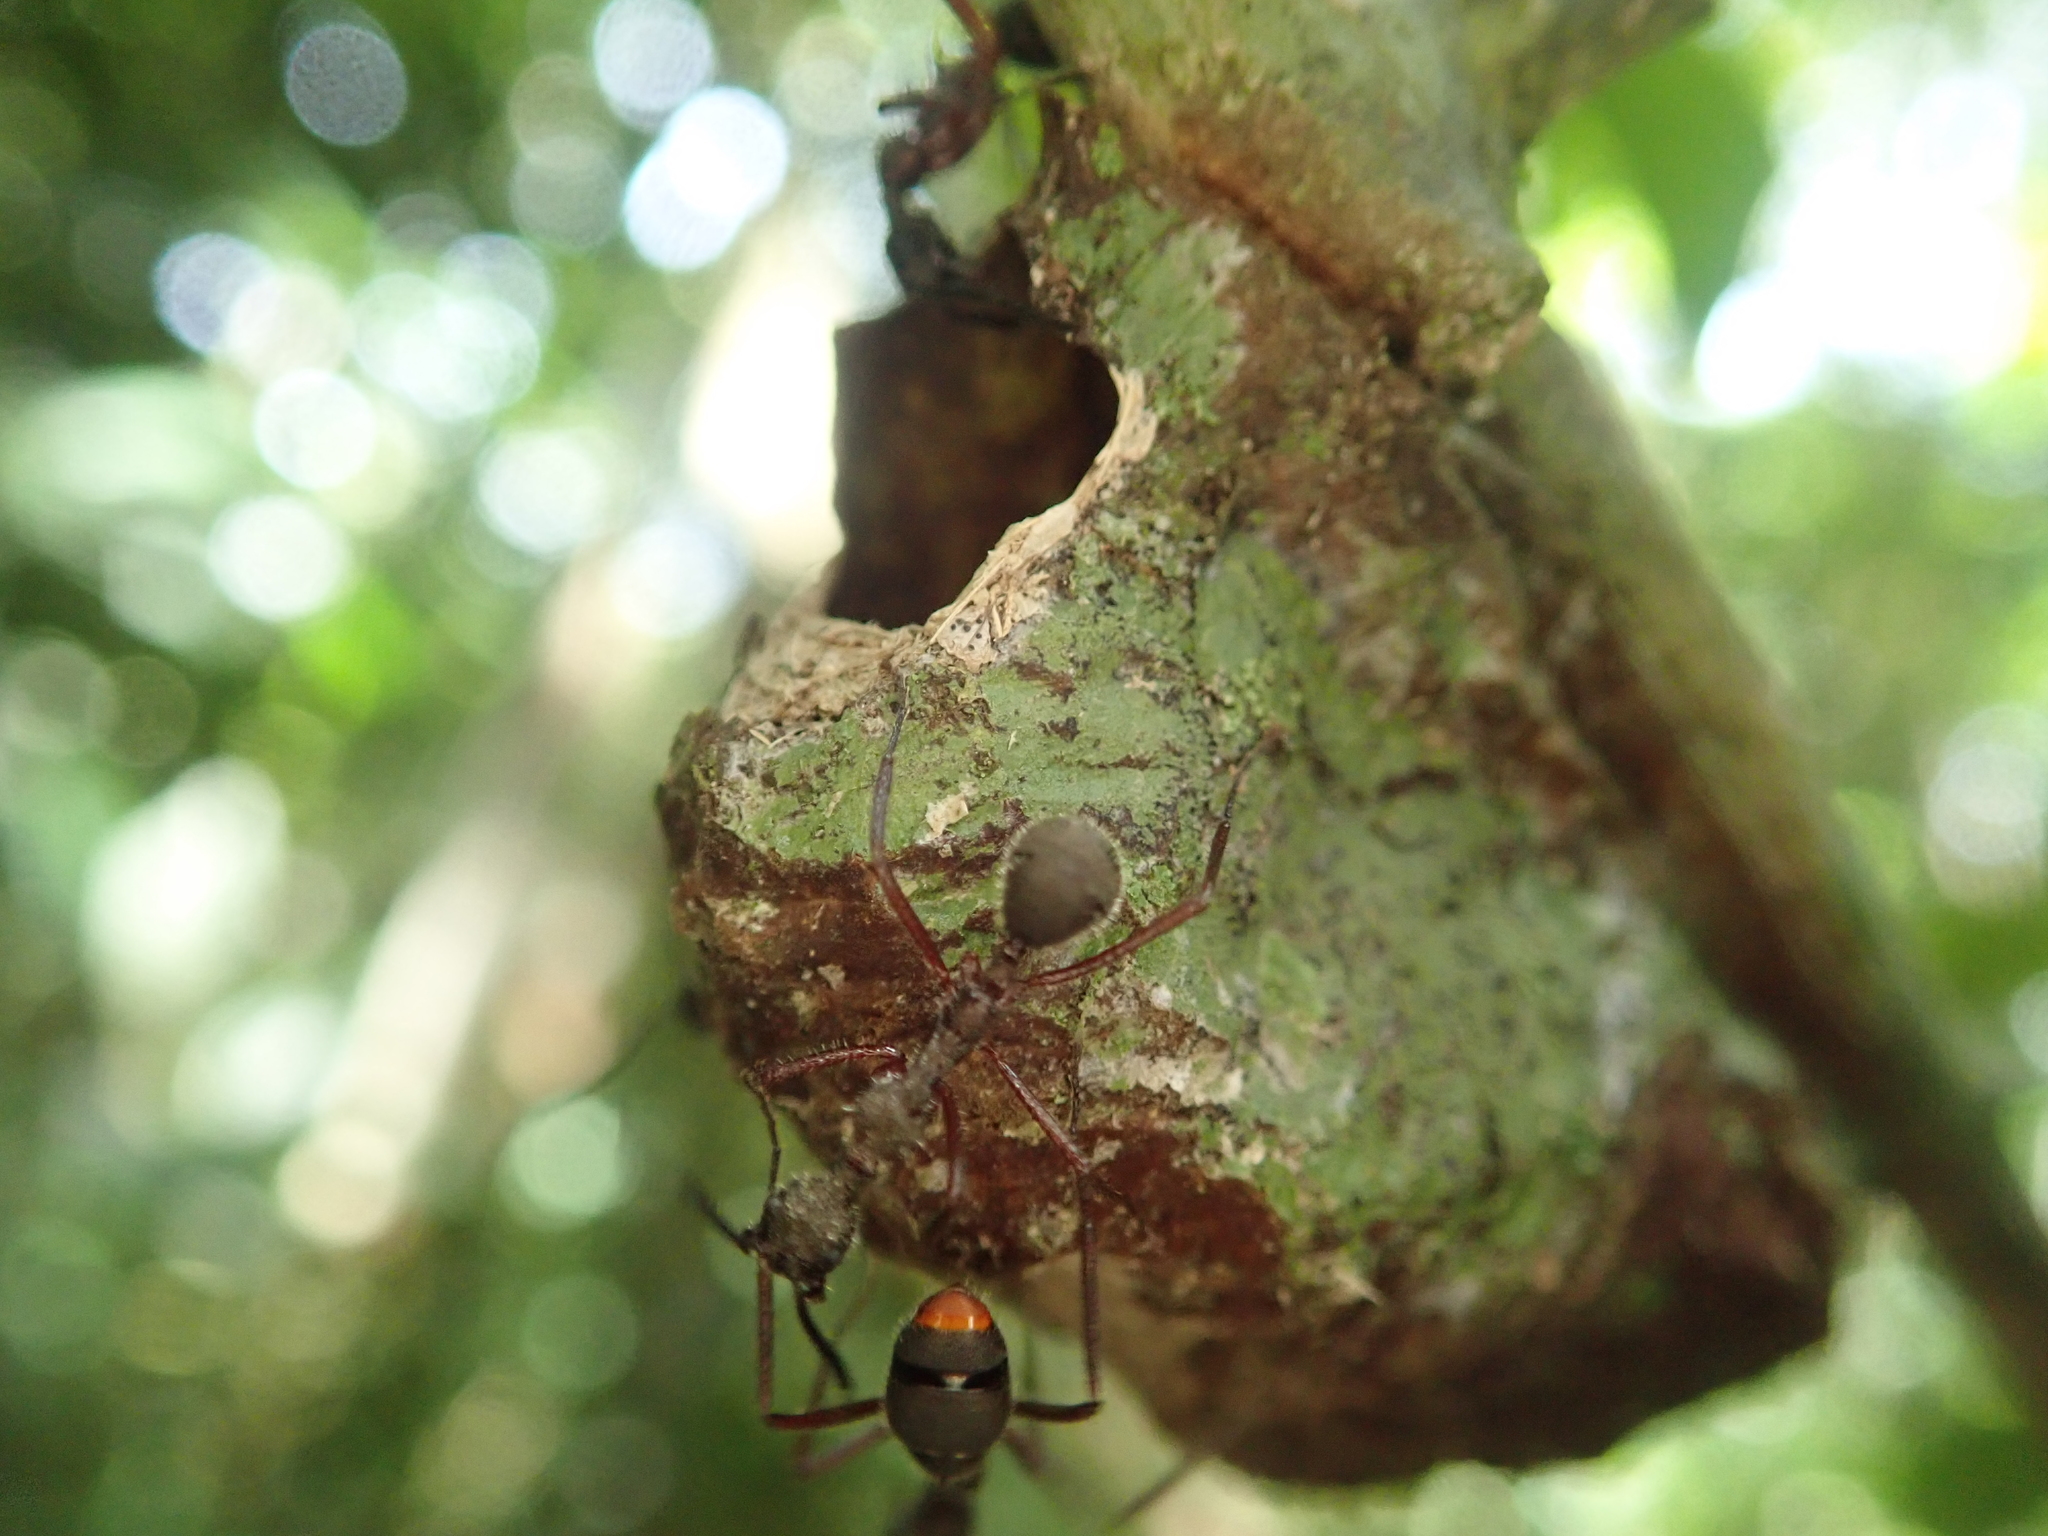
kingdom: Animalia
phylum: Arthropoda
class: Insecta
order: Hymenoptera
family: Formicidae
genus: Dolichoderus
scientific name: Dolichoderus longicollis
